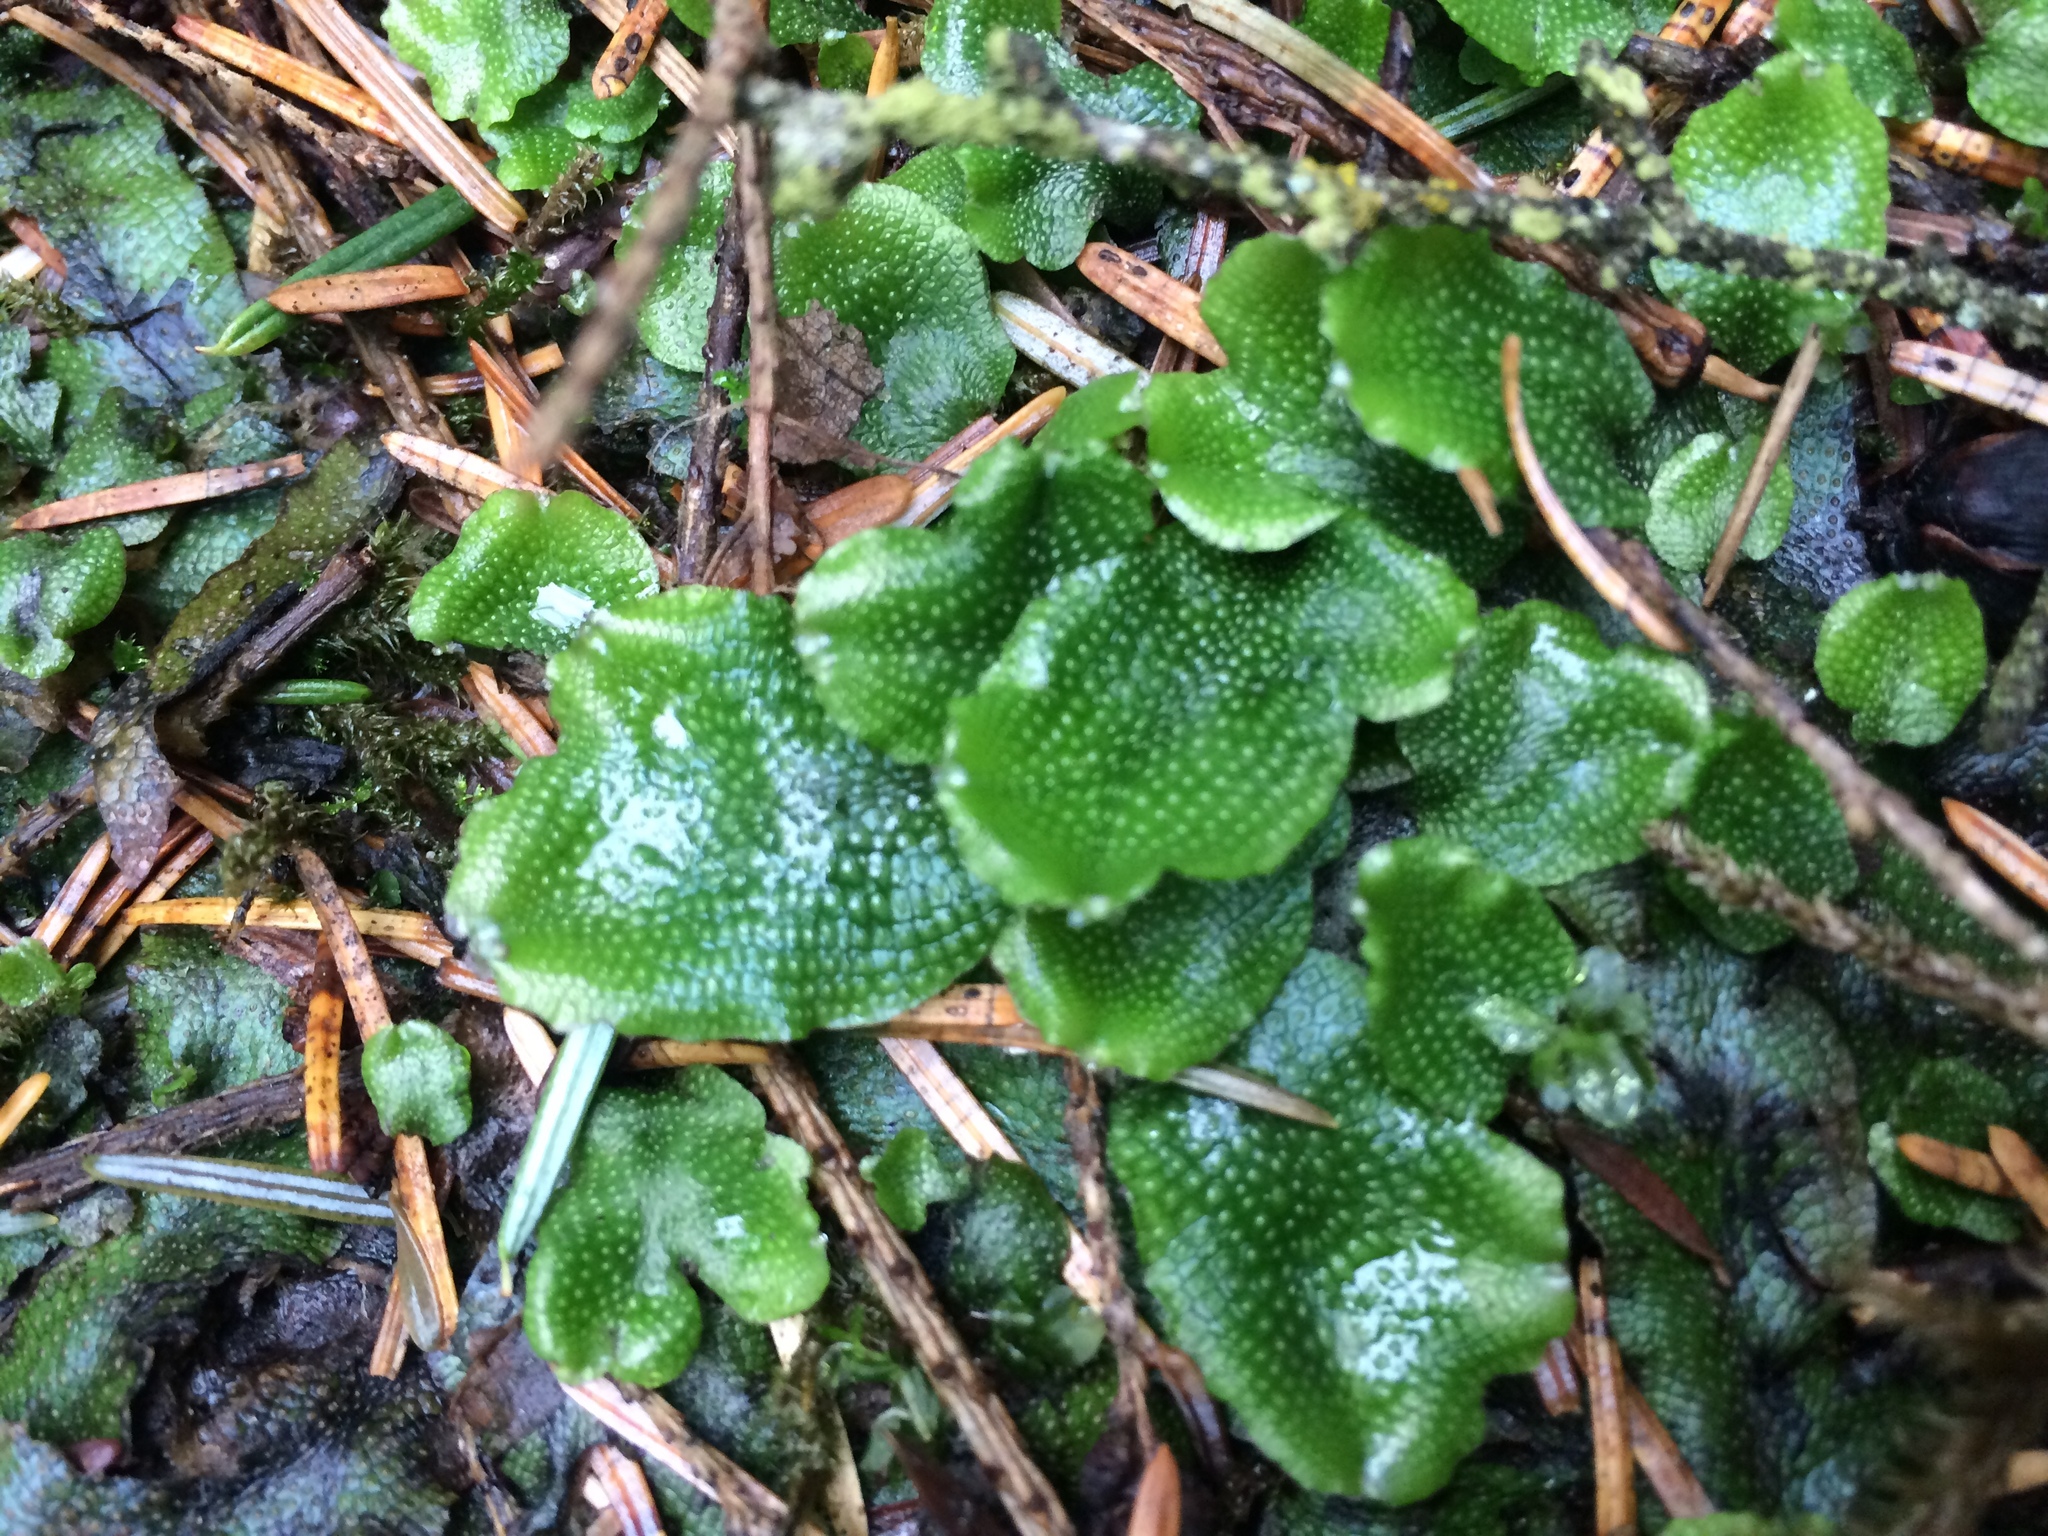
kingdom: Plantae
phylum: Marchantiophyta
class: Marchantiopsida
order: Marchantiales
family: Conocephalaceae
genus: Conocephalum
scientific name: Conocephalum conicum
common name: Great scented liverwort
